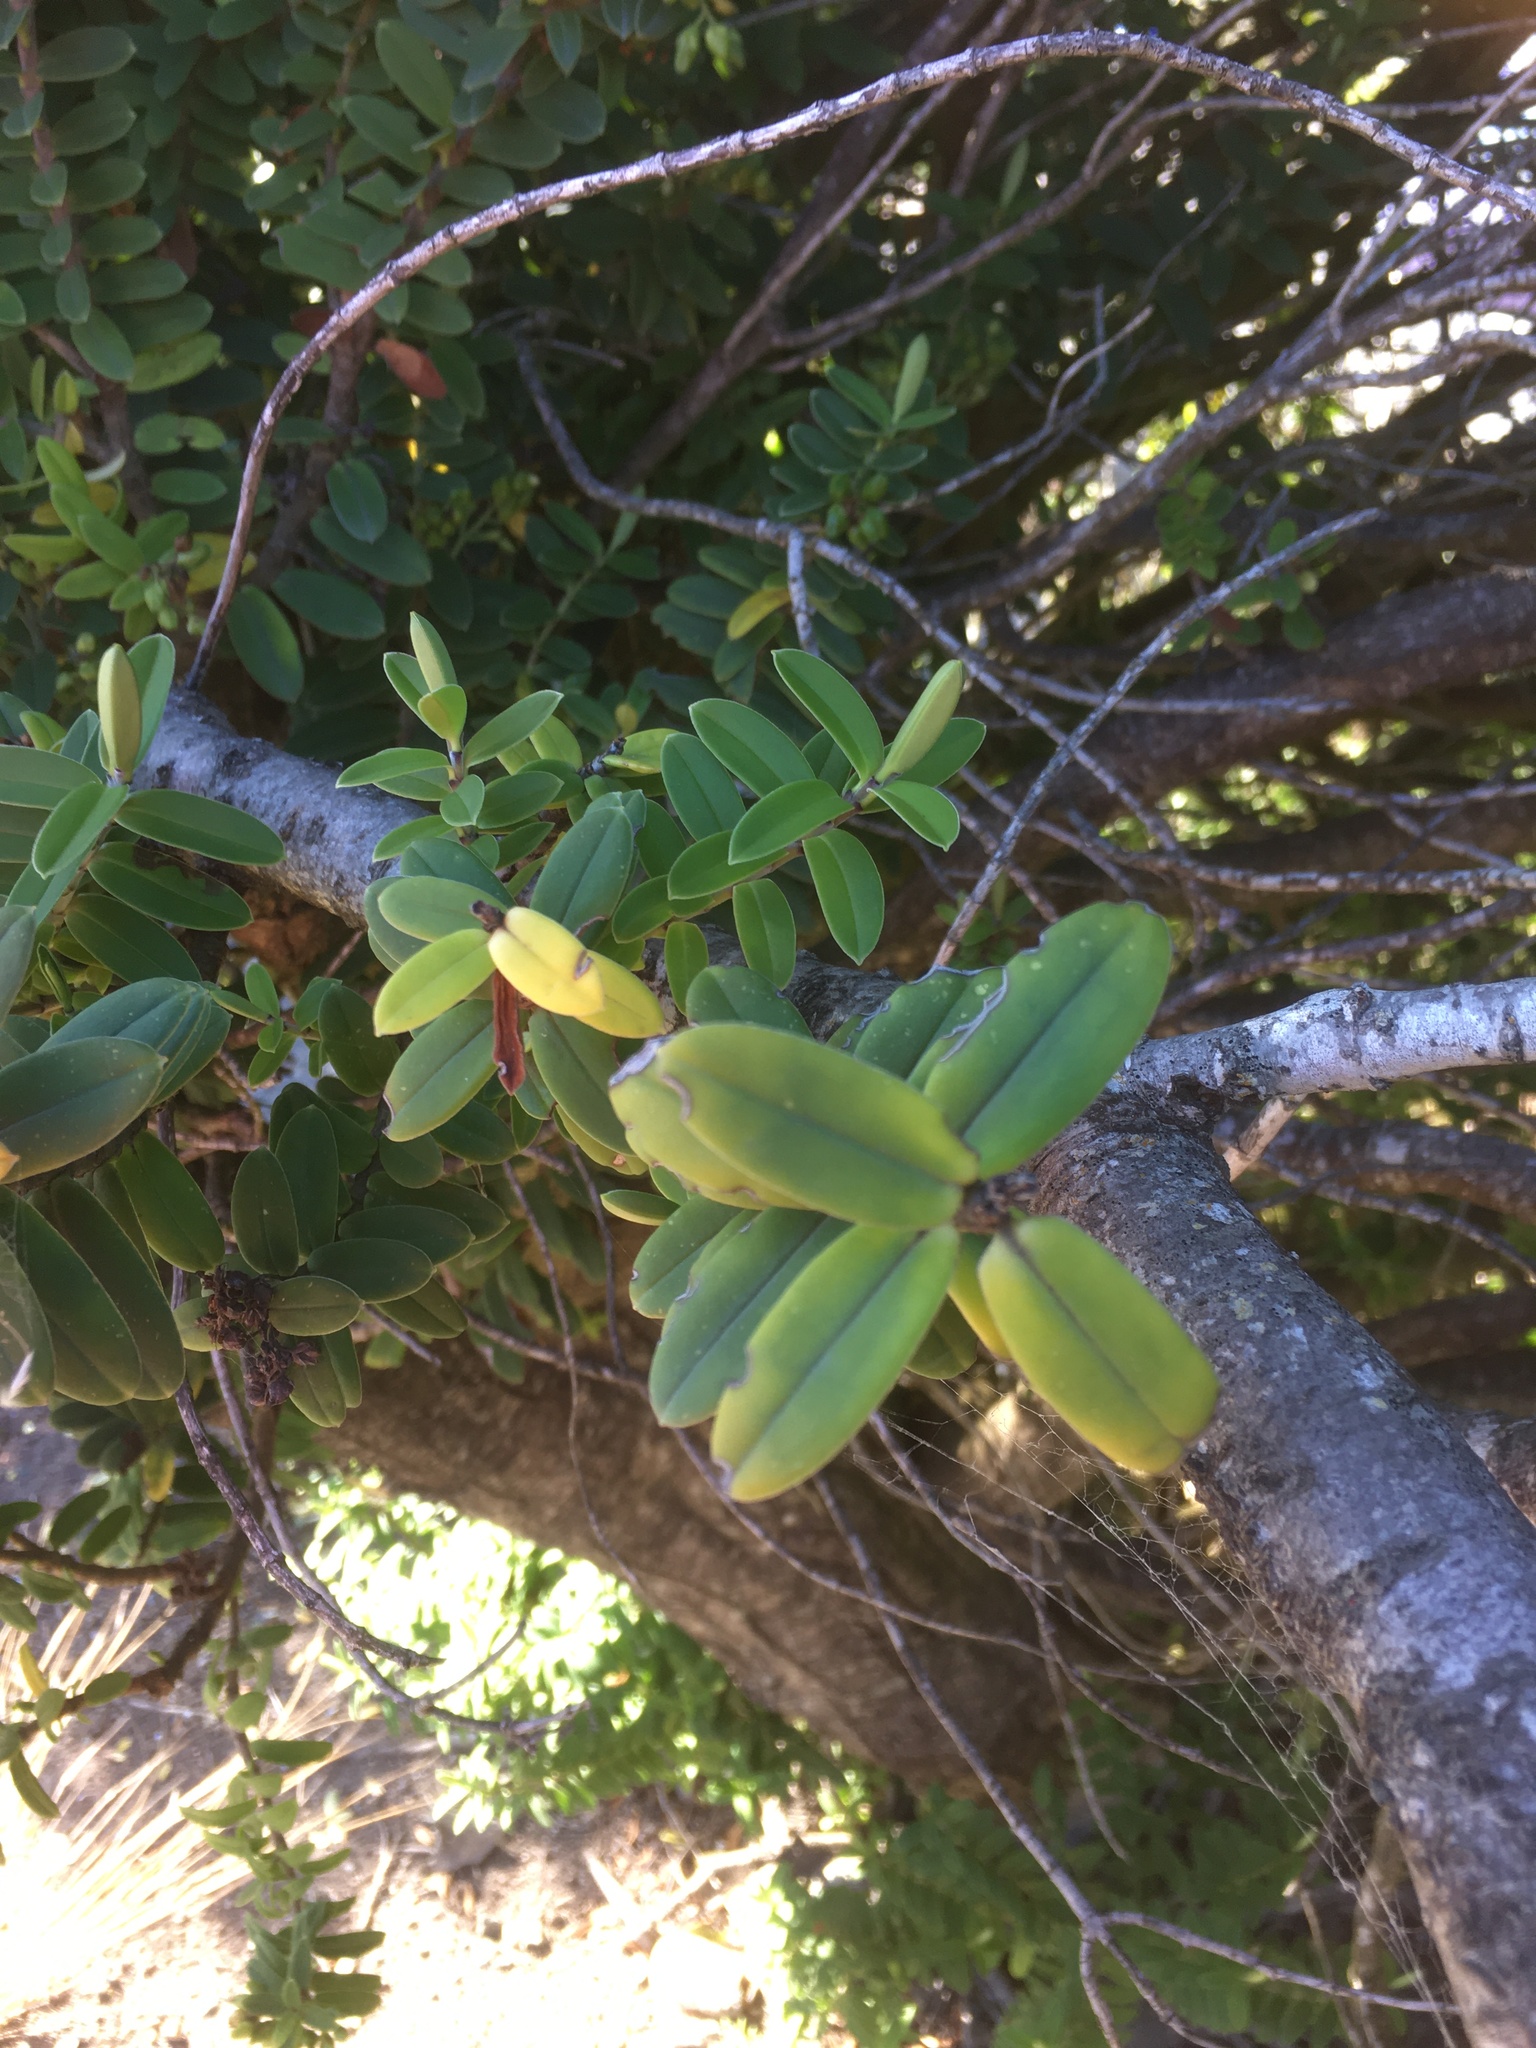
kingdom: Plantae
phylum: Tracheophyta
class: Magnoliopsida
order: Lamiales
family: Plantaginaceae
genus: Veronica
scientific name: Veronica elliptica
